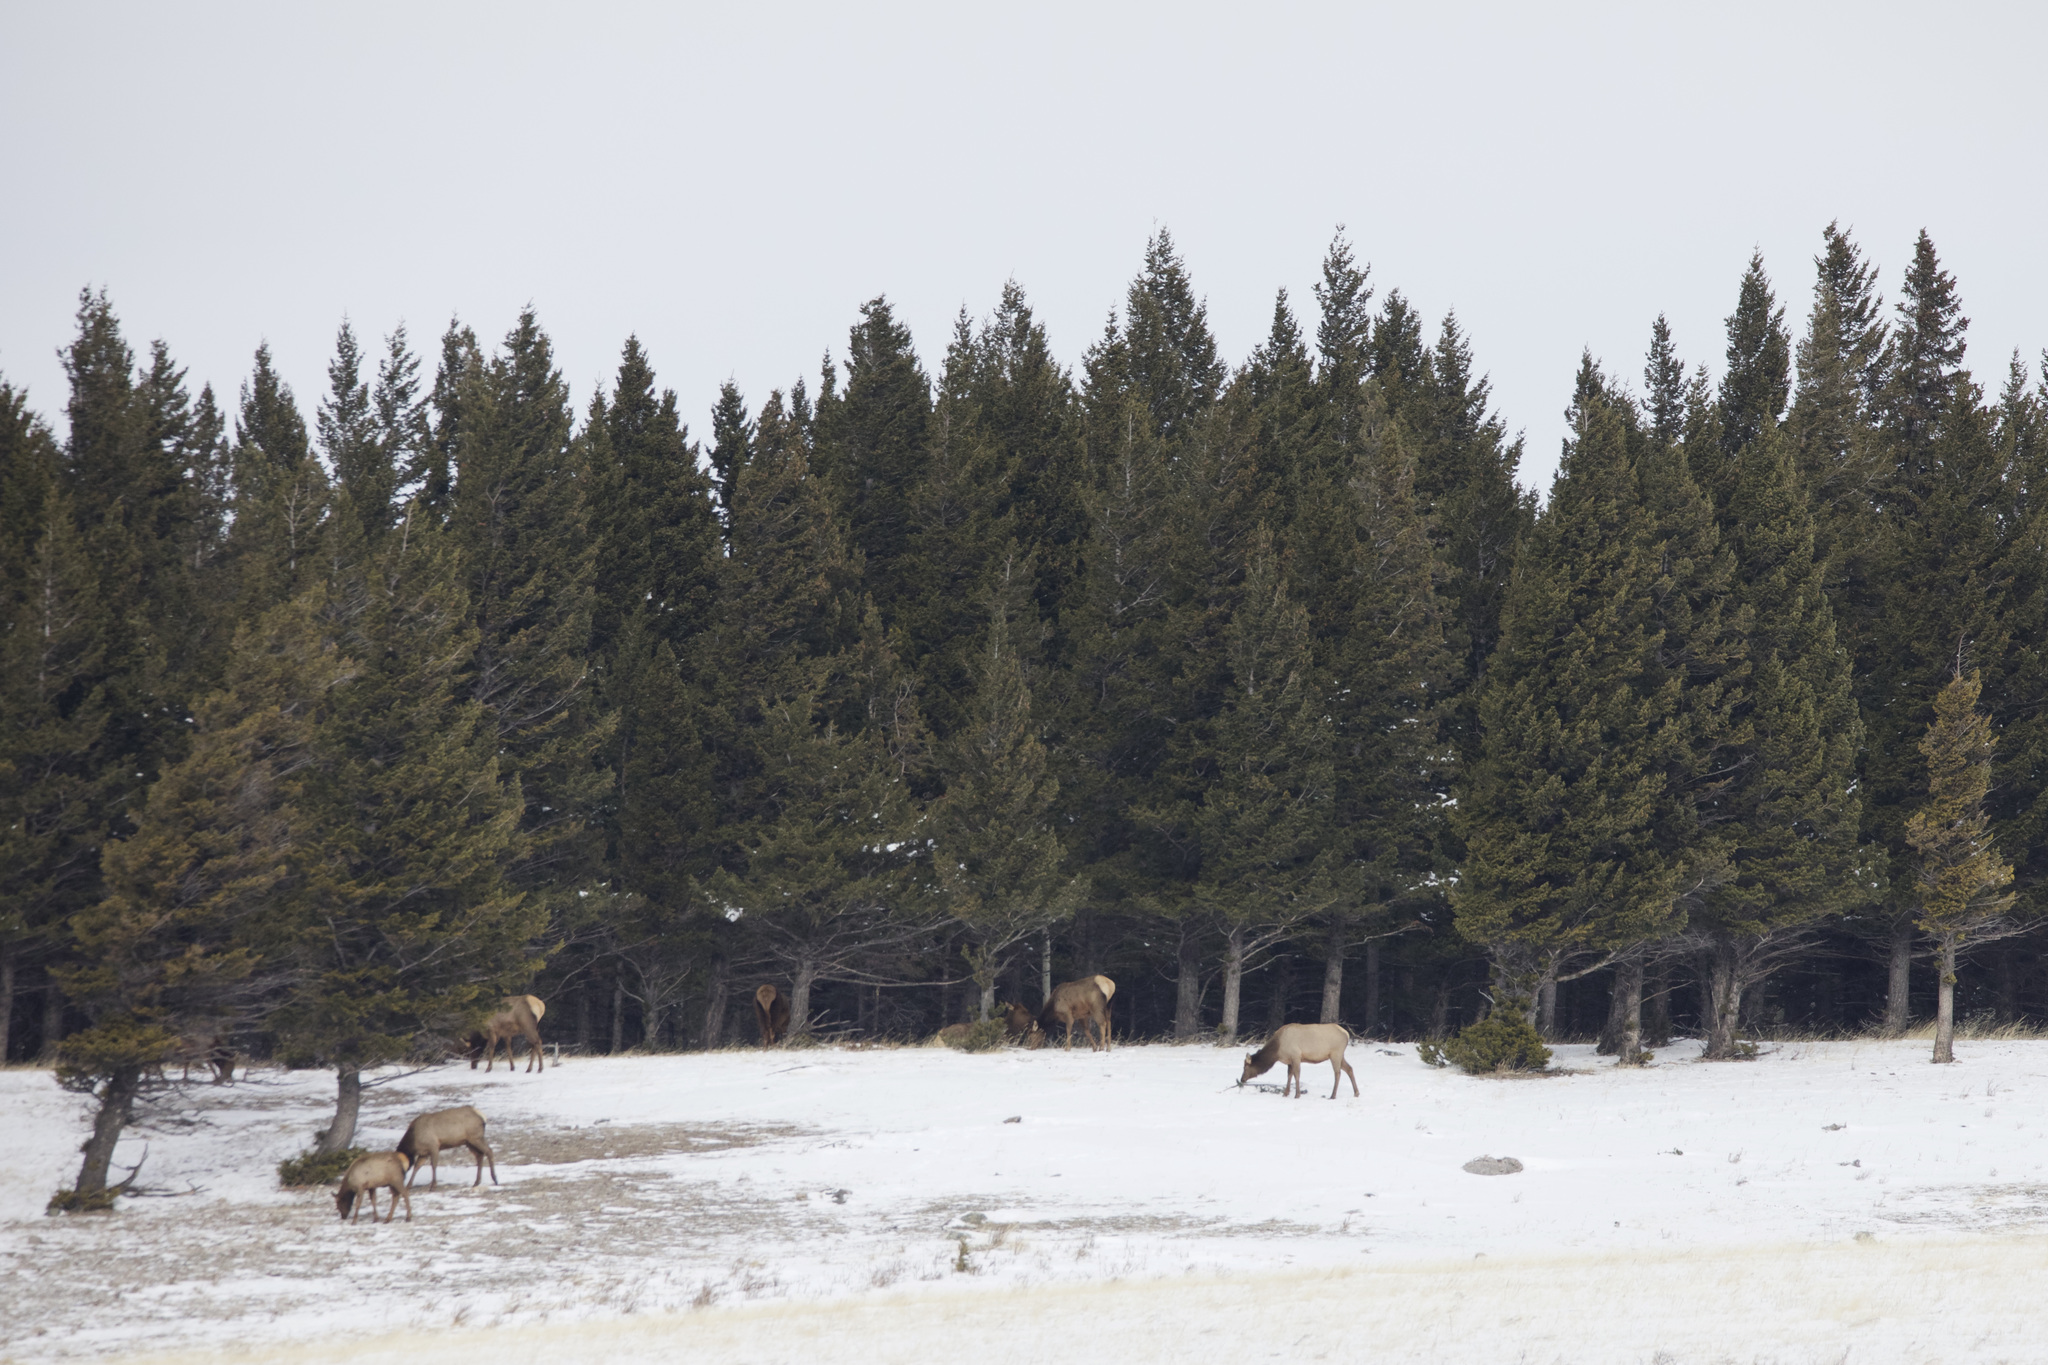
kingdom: Animalia
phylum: Chordata
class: Mammalia
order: Artiodactyla
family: Cervidae
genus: Cervus
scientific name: Cervus elaphus
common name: Red deer
